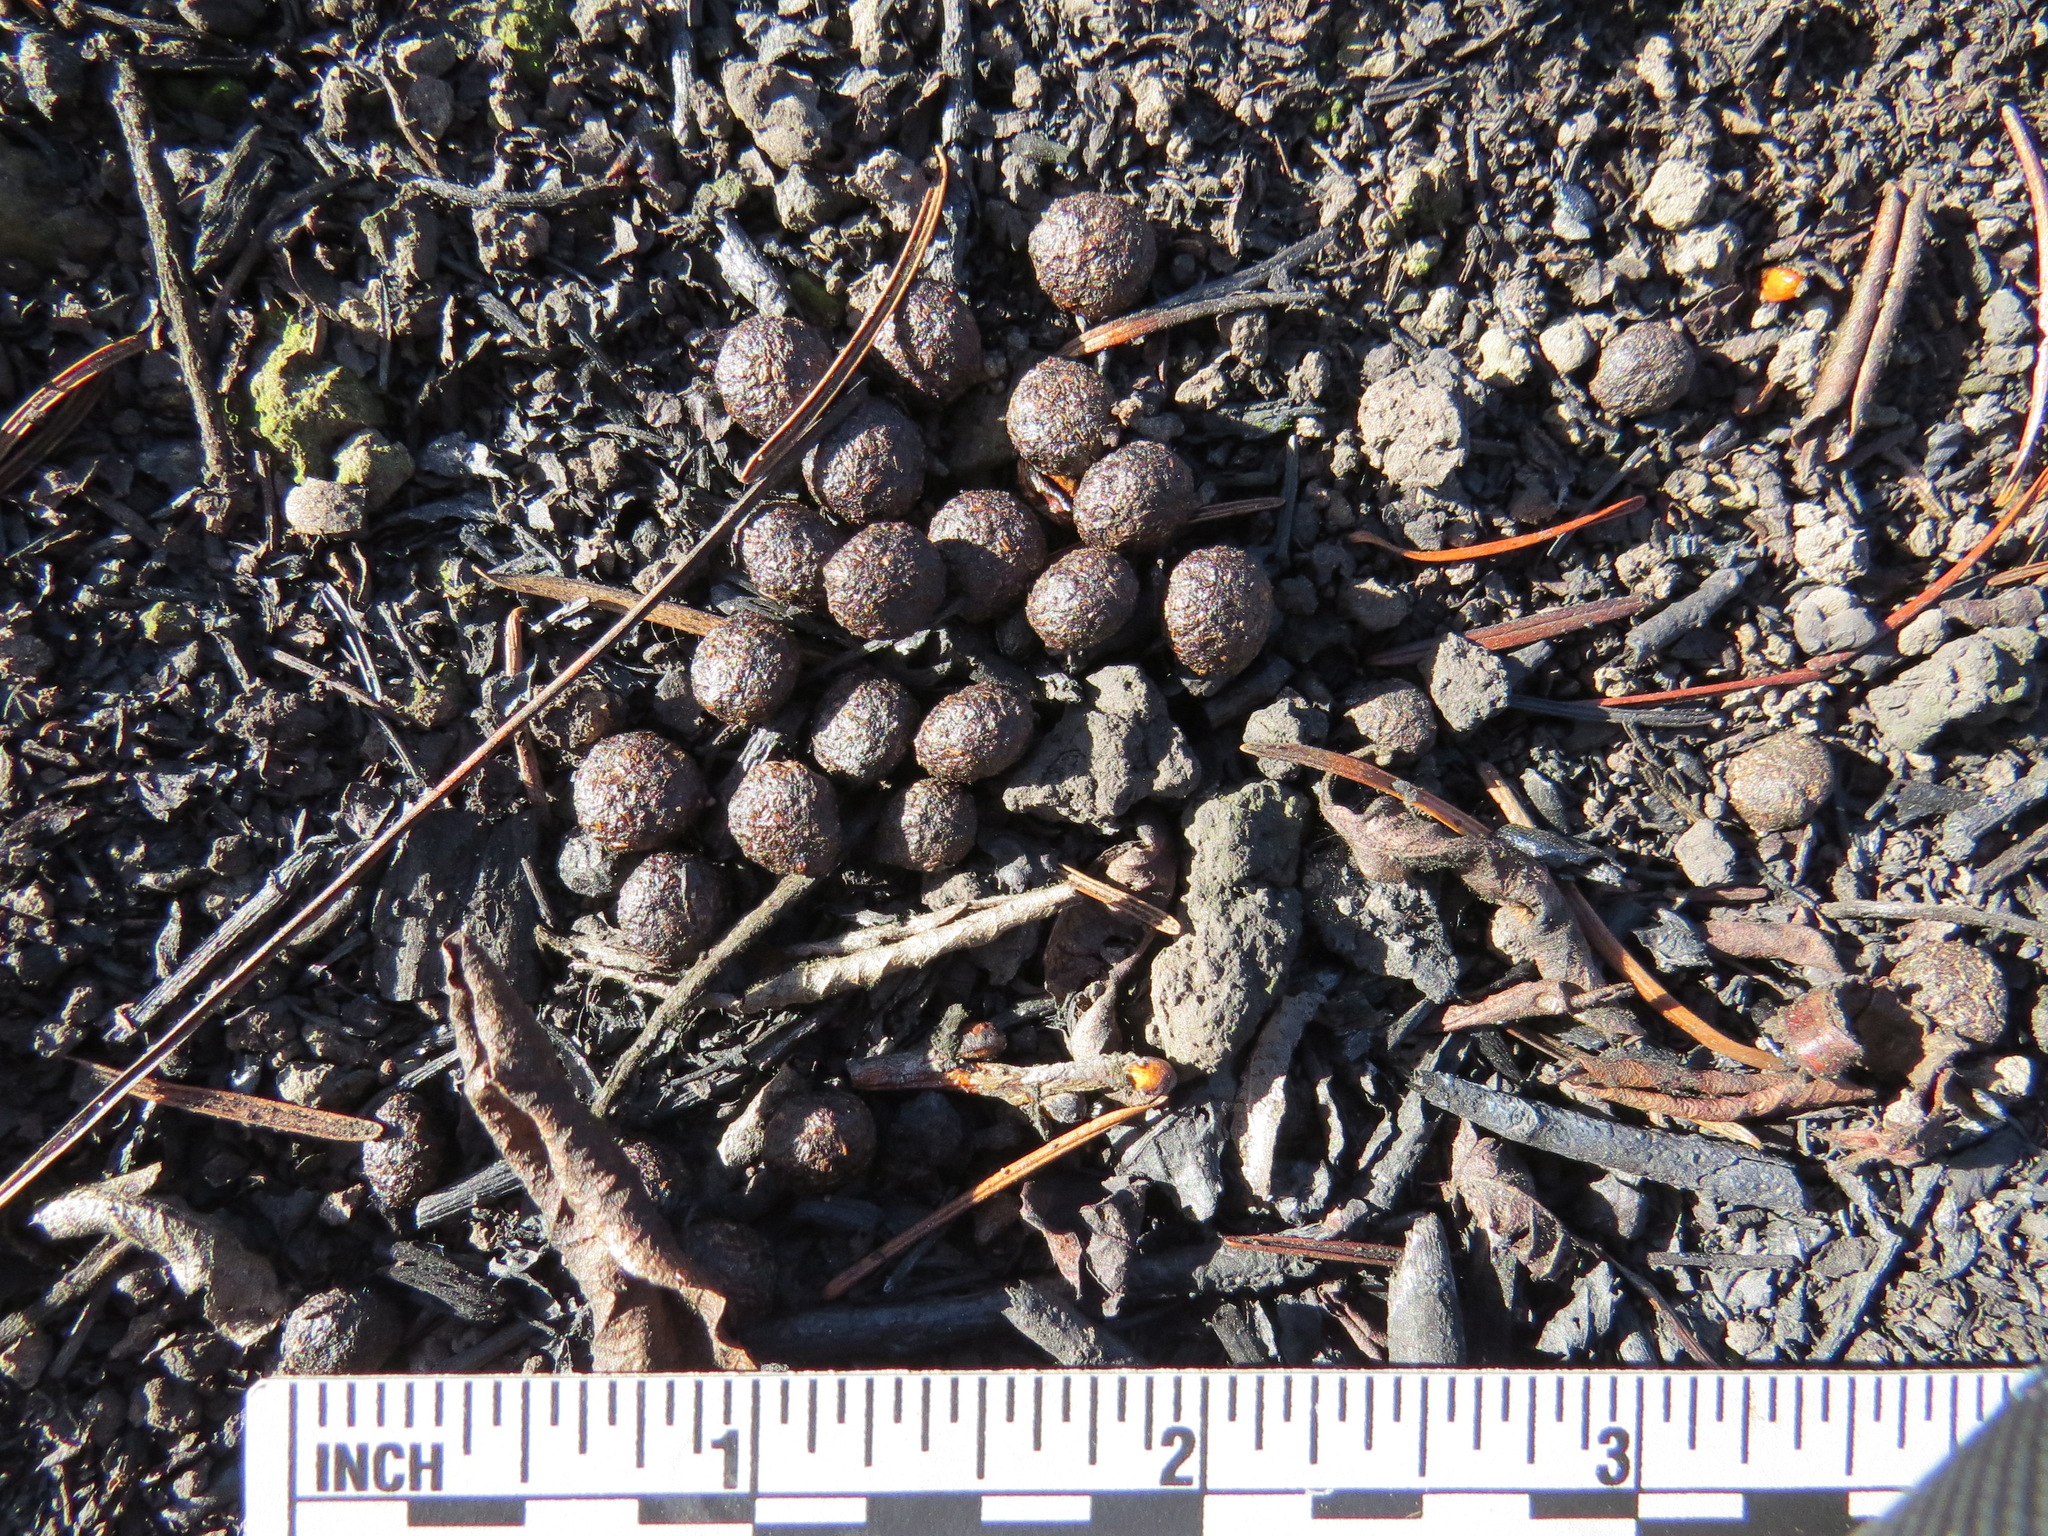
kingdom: Animalia
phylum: Chordata
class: Mammalia
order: Lagomorpha
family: Leporidae
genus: Sylvilagus
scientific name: Sylvilagus bachmani
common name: Brush rabbit
